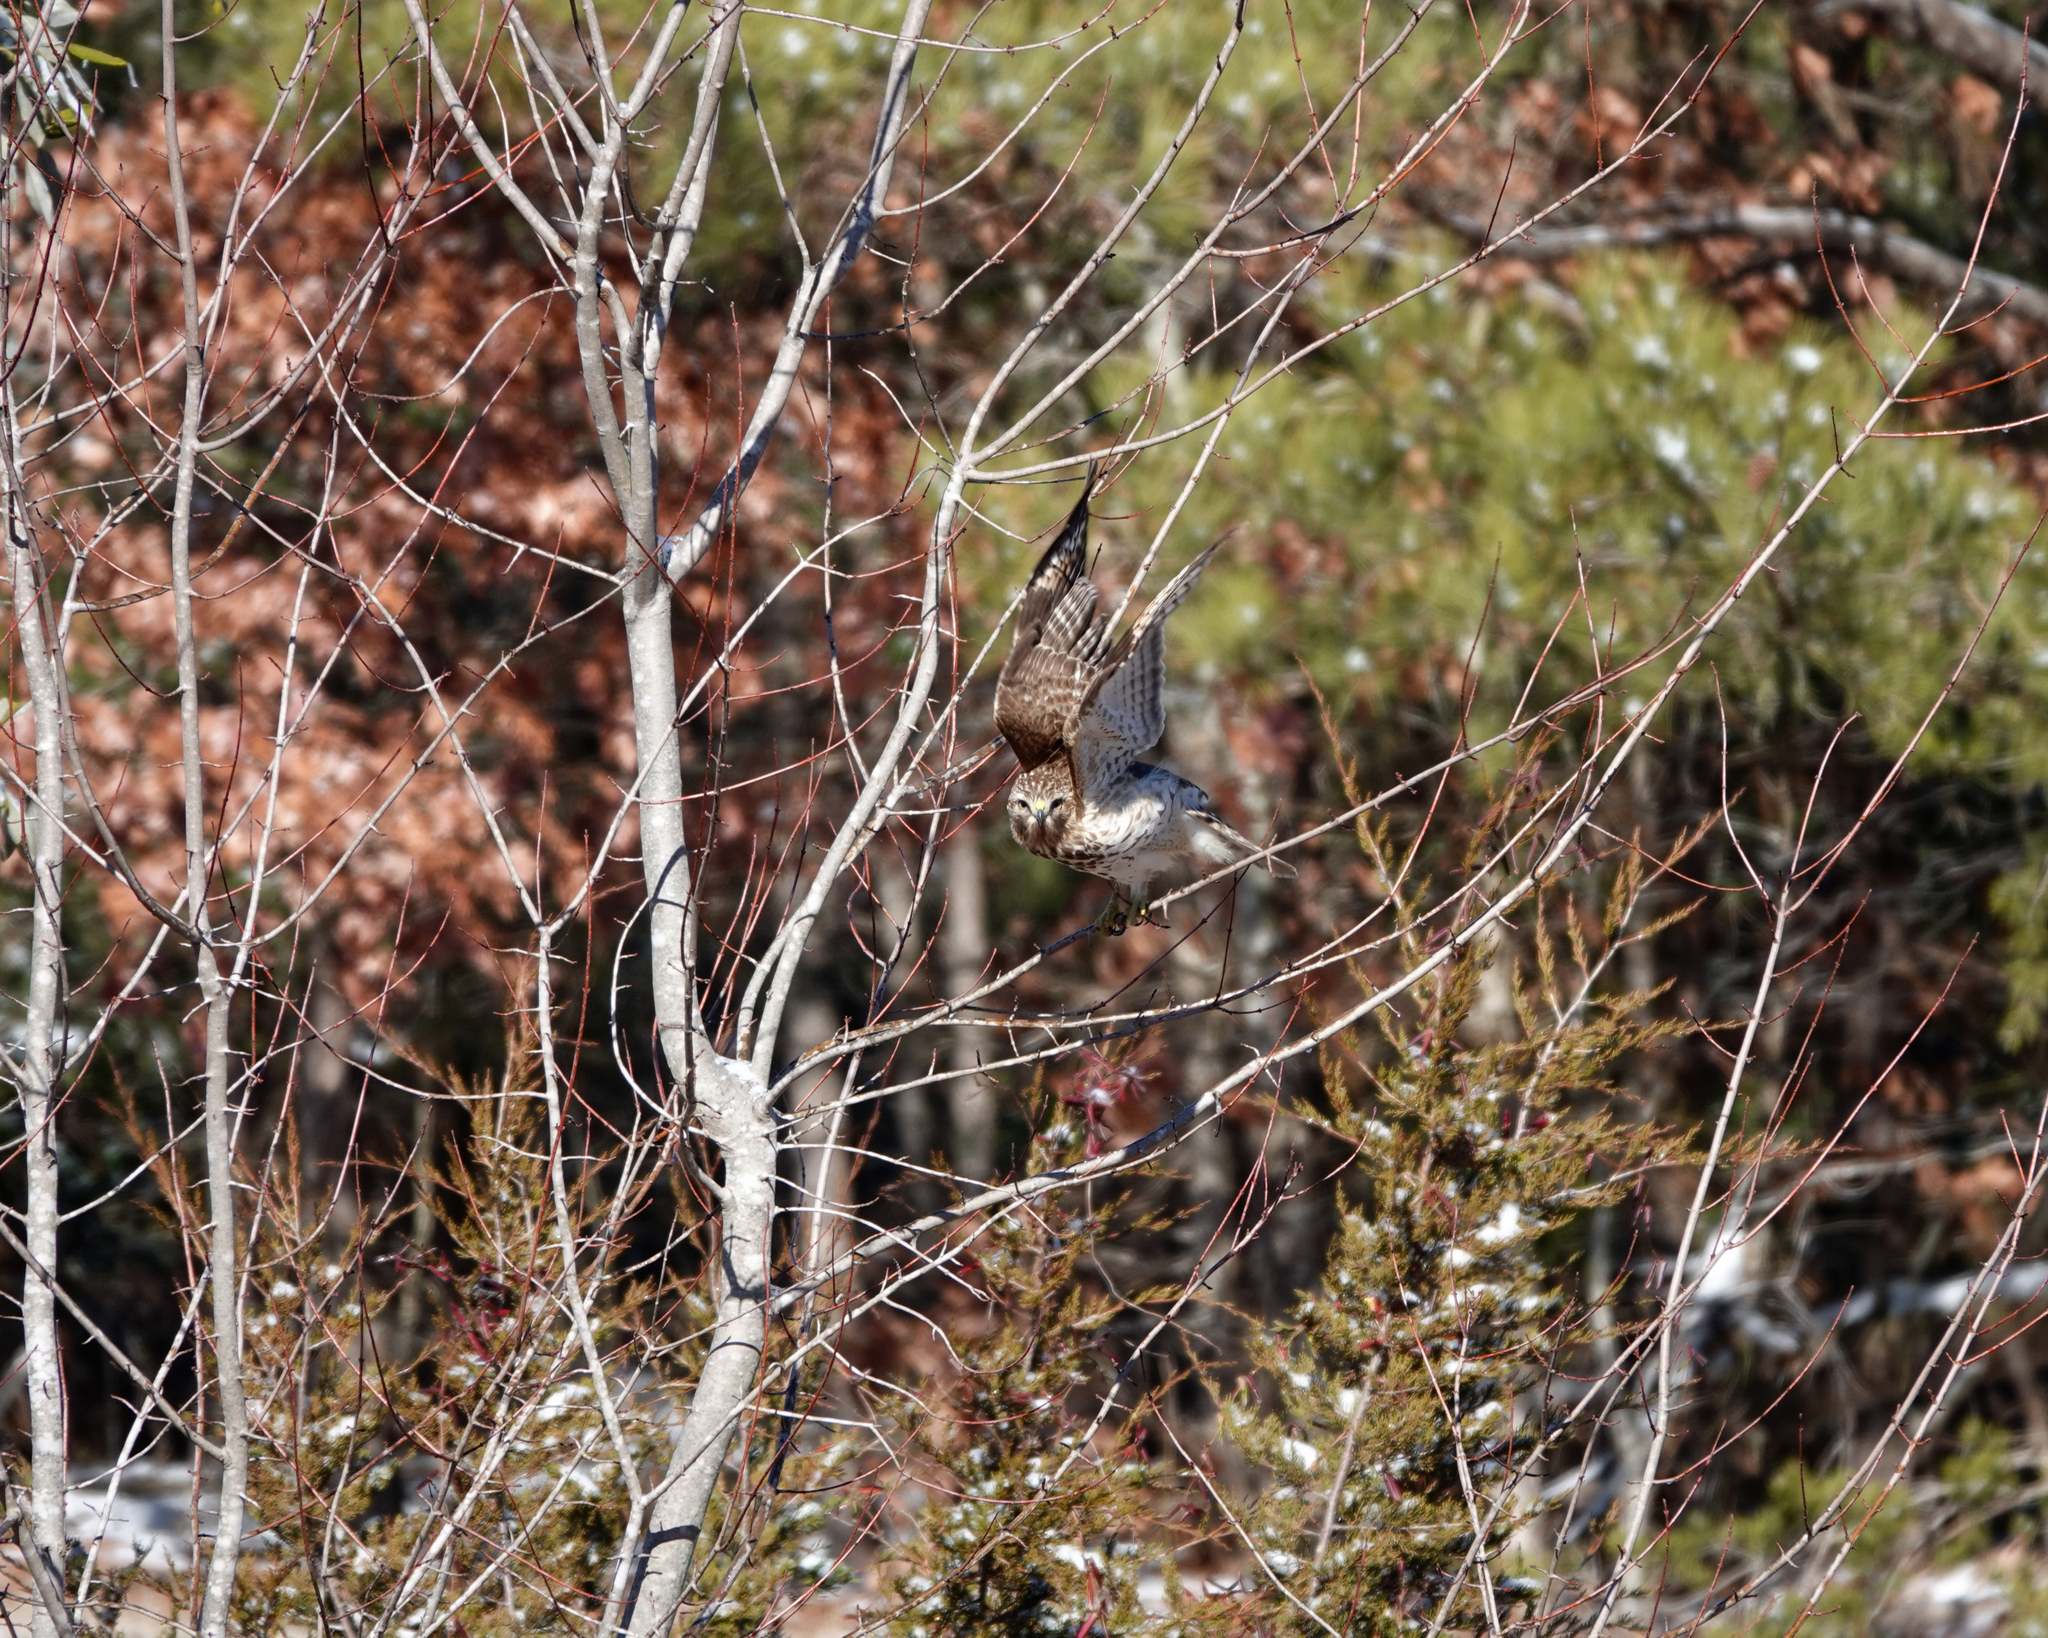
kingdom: Animalia
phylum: Chordata
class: Aves
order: Accipitriformes
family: Accipitridae
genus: Buteo
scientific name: Buteo lineatus
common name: Red-shouldered hawk
